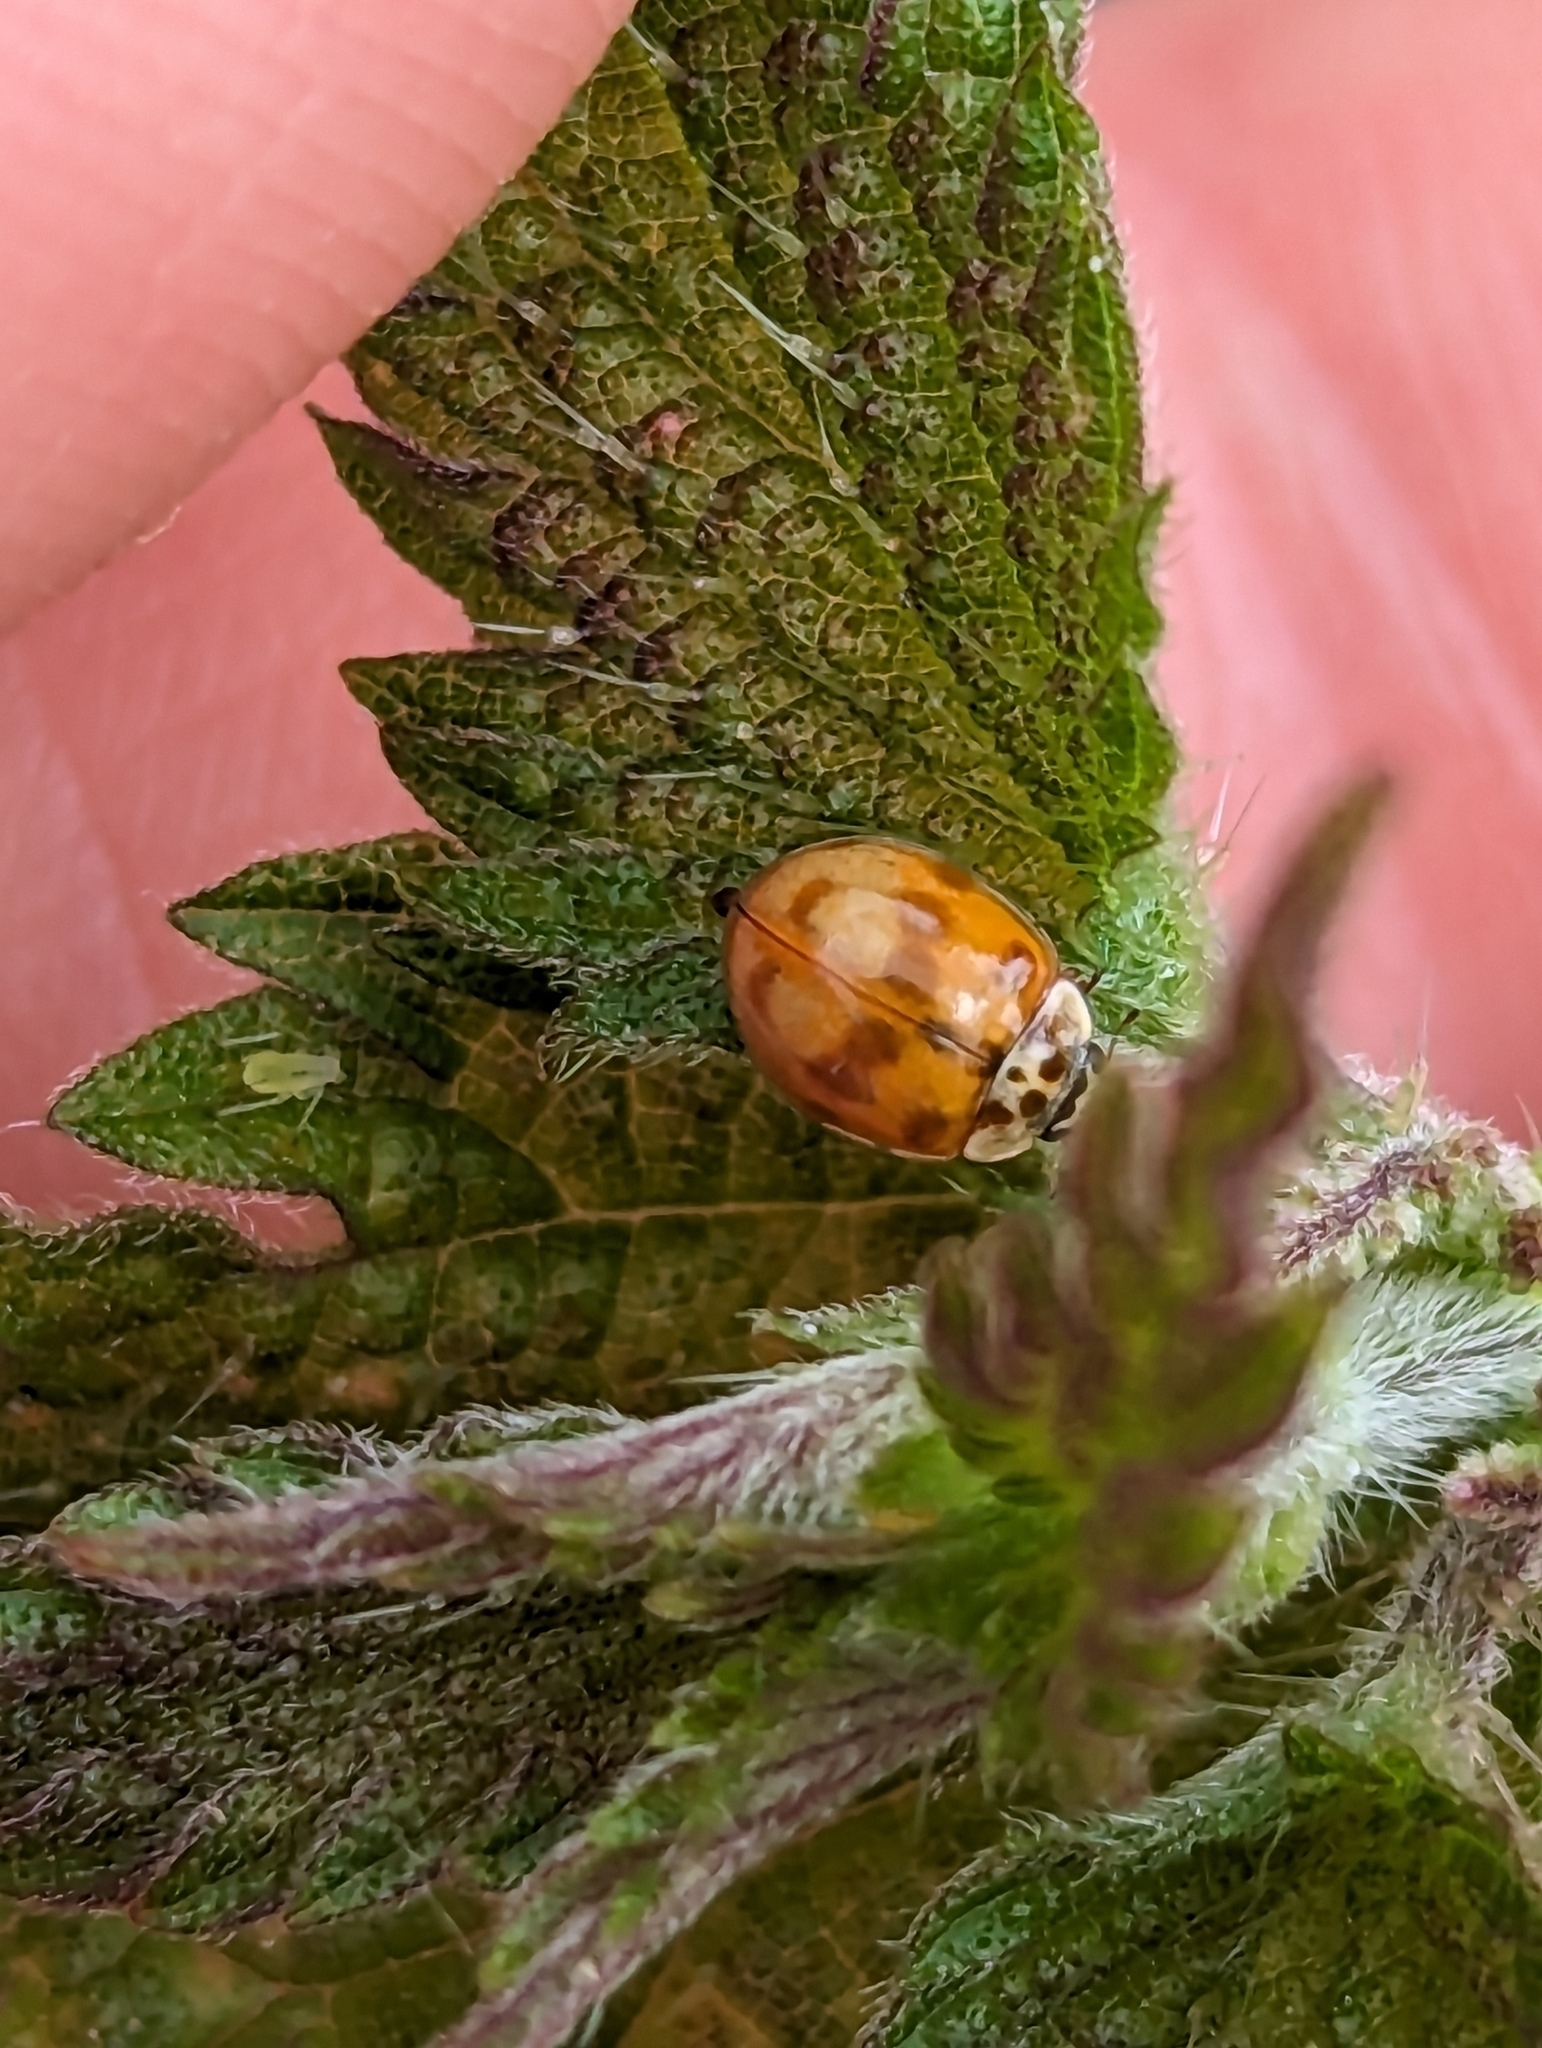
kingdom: Animalia
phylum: Arthropoda
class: Insecta
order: Coleoptera
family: Coccinellidae
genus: Adalia
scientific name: Adalia decempunctata
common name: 10-spot ladybird
